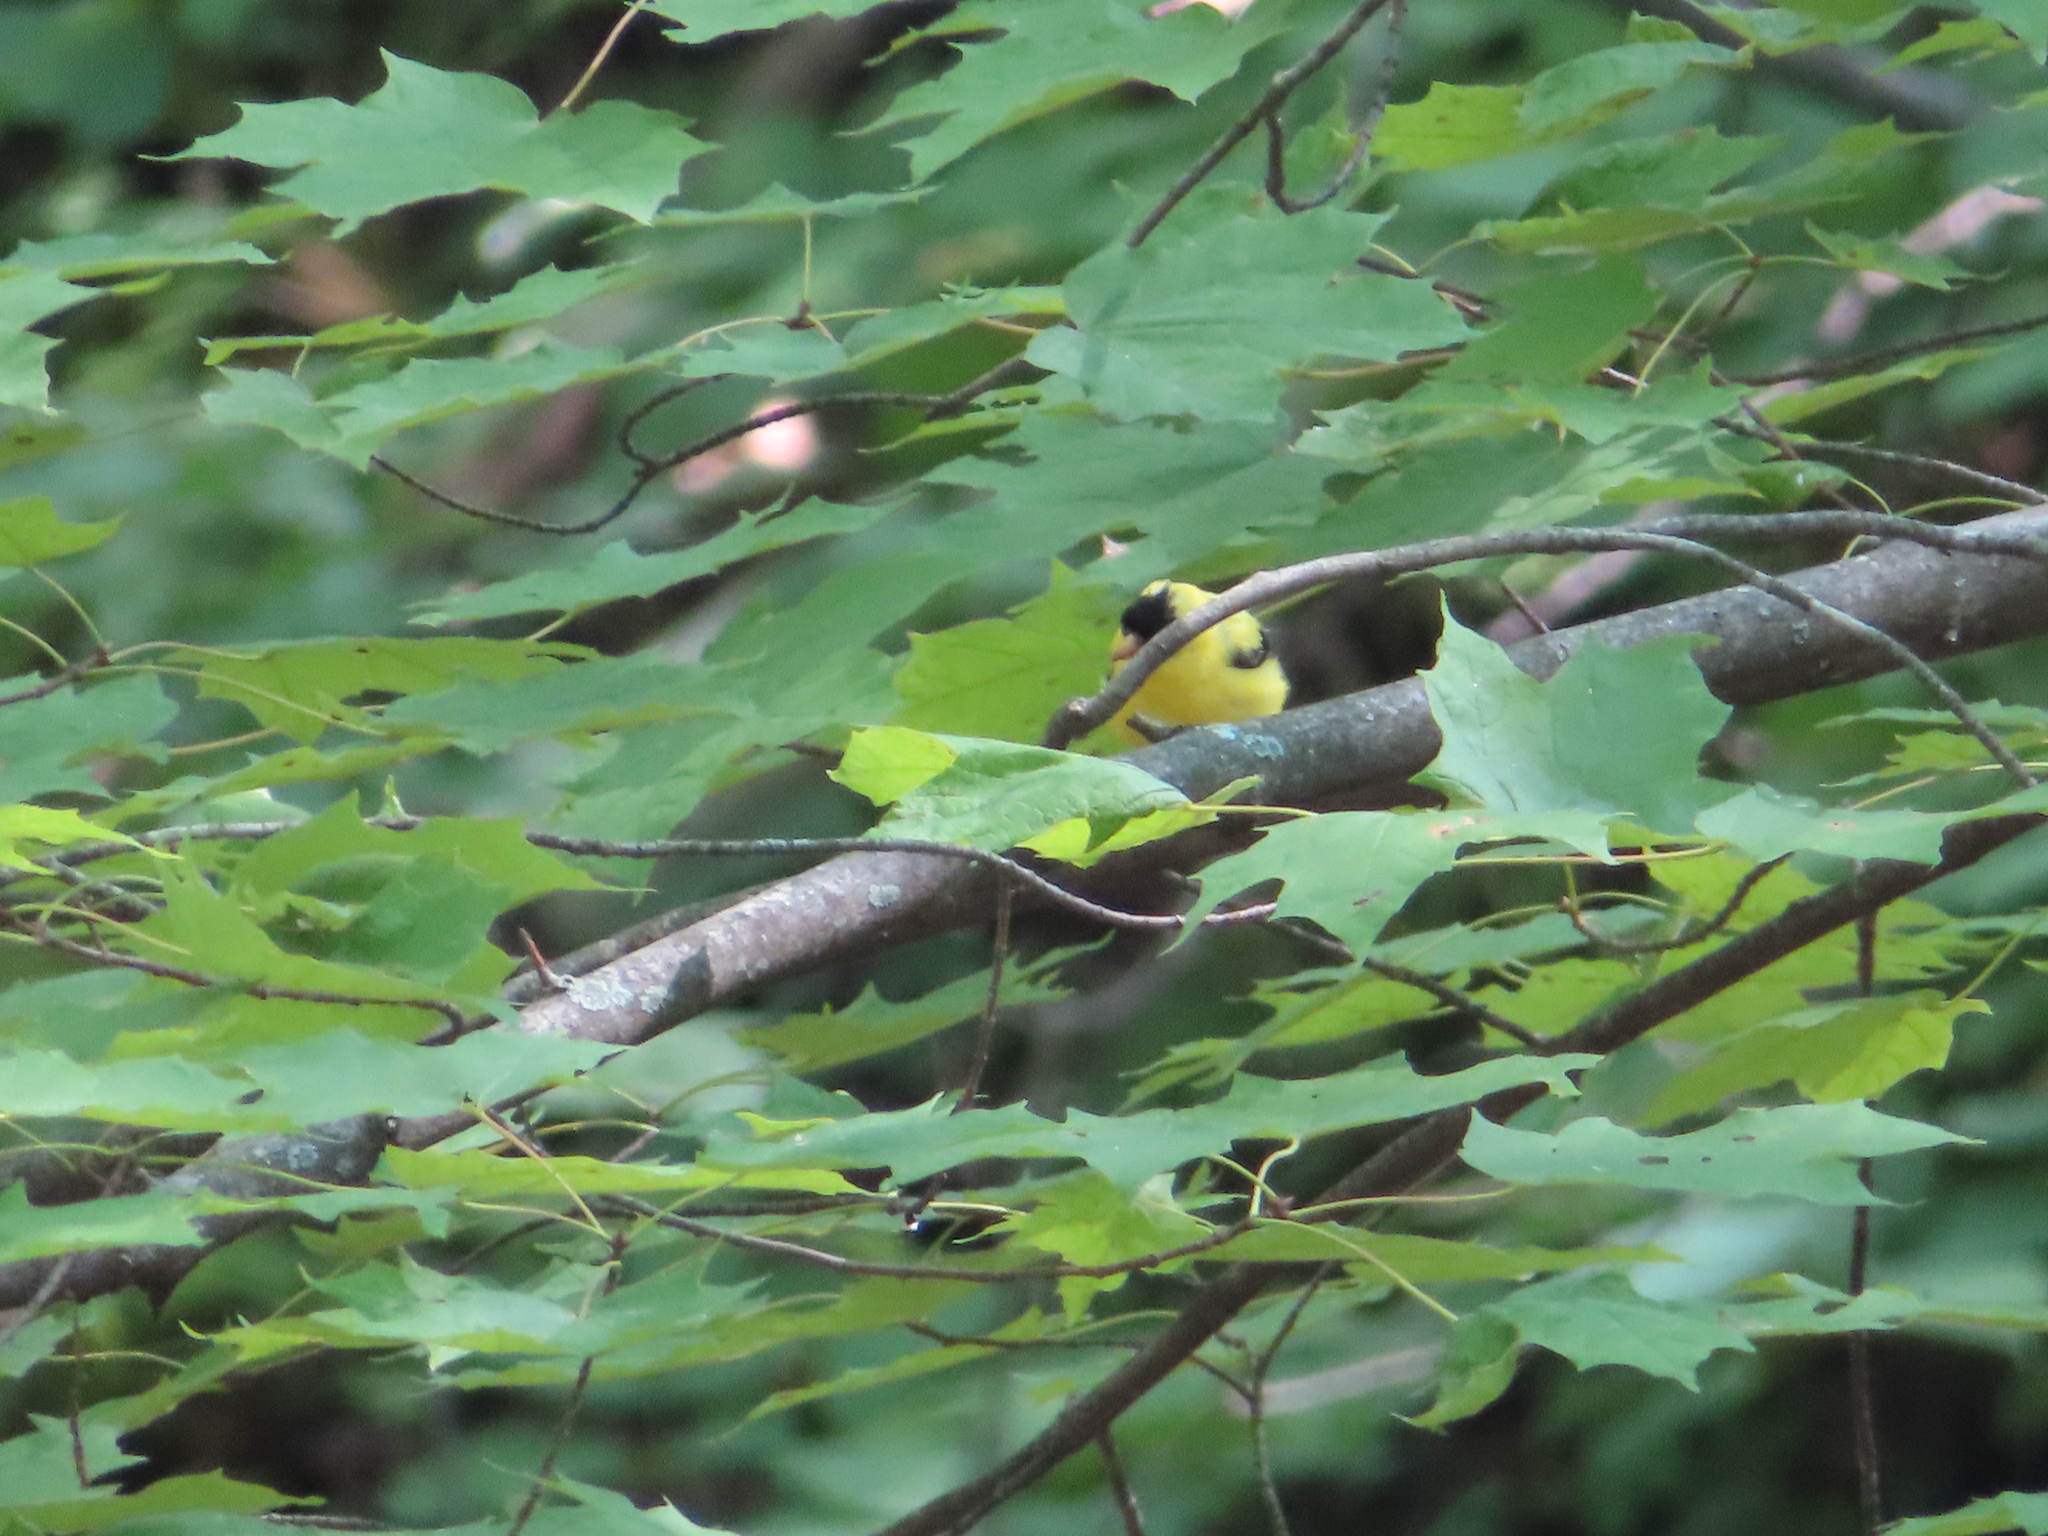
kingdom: Animalia
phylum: Chordata
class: Aves
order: Passeriformes
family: Fringillidae
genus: Spinus
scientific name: Spinus tristis
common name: American goldfinch
